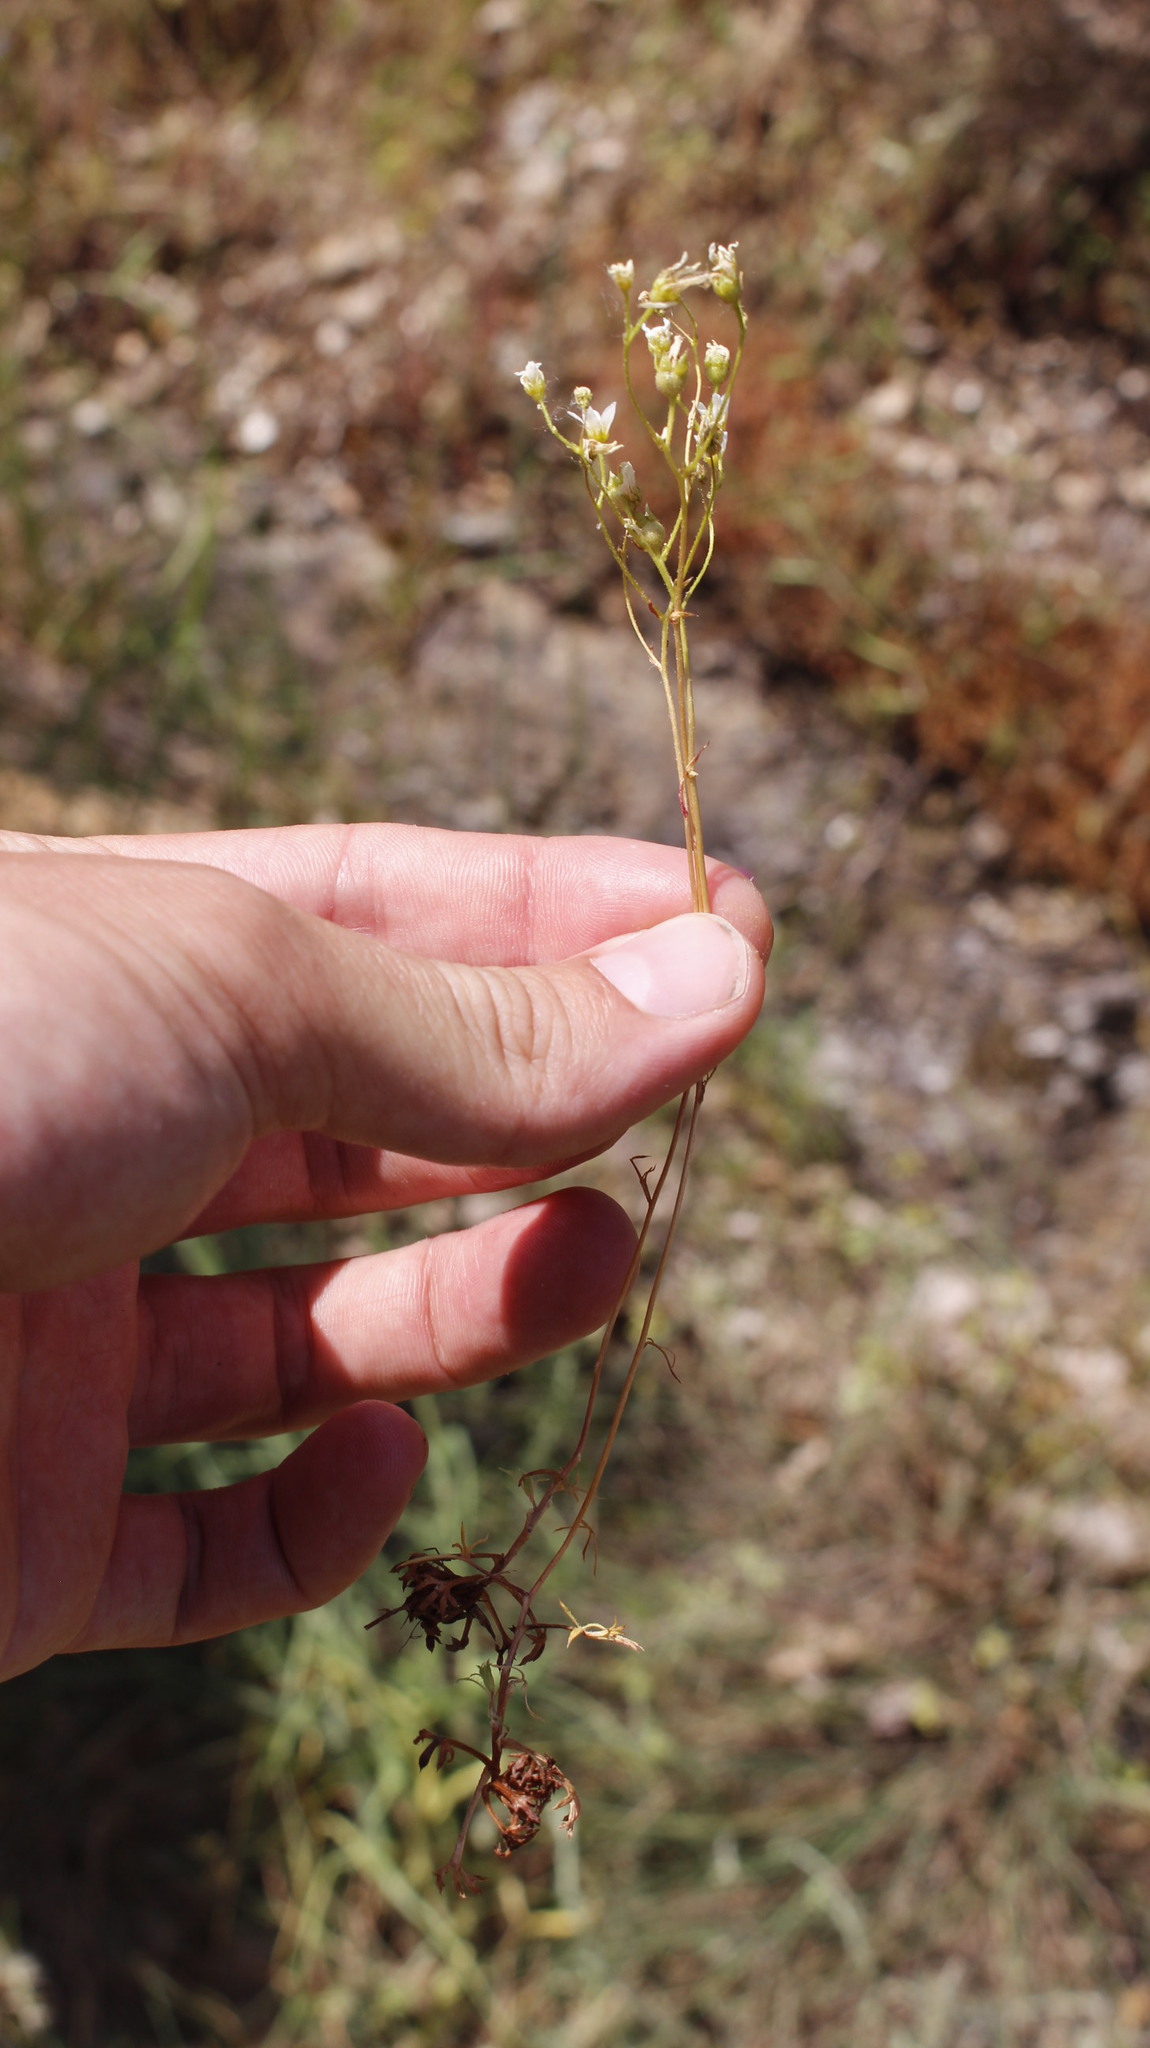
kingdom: Plantae
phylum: Tracheophyta
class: Magnoliopsida
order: Saxifragales
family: Saxifragaceae
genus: Saxifraga
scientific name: Saxifraga fragosoi
